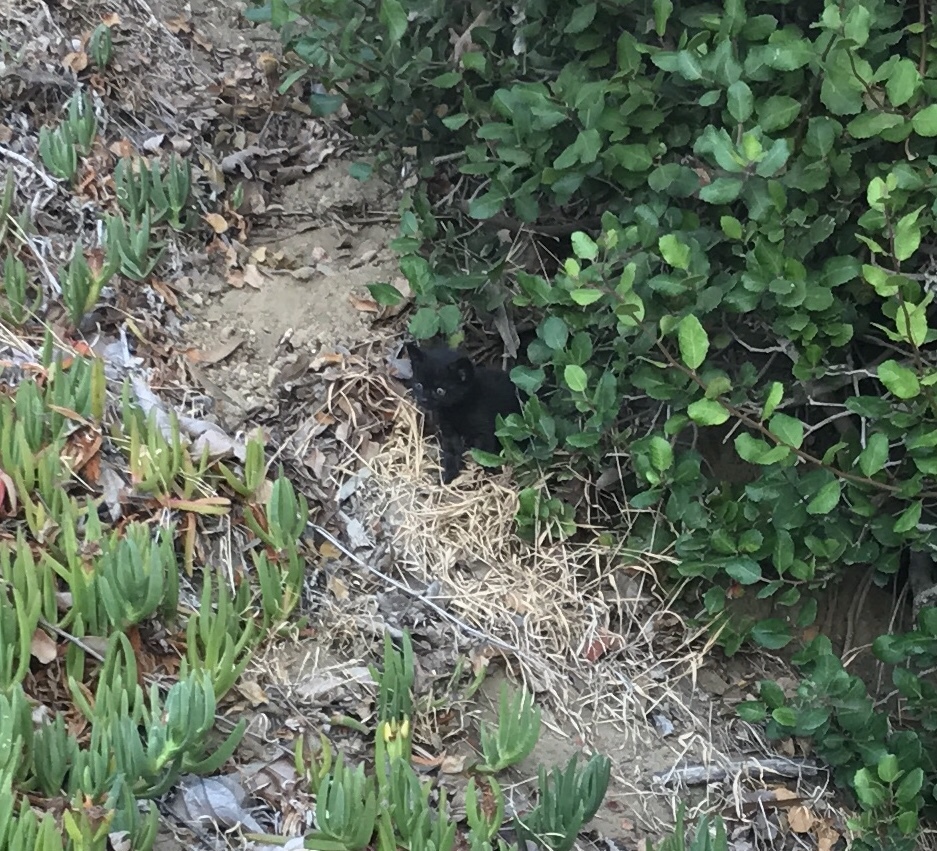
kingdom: Animalia
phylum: Chordata
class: Mammalia
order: Carnivora
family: Felidae
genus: Felis
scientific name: Felis catus
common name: Domestic cat
